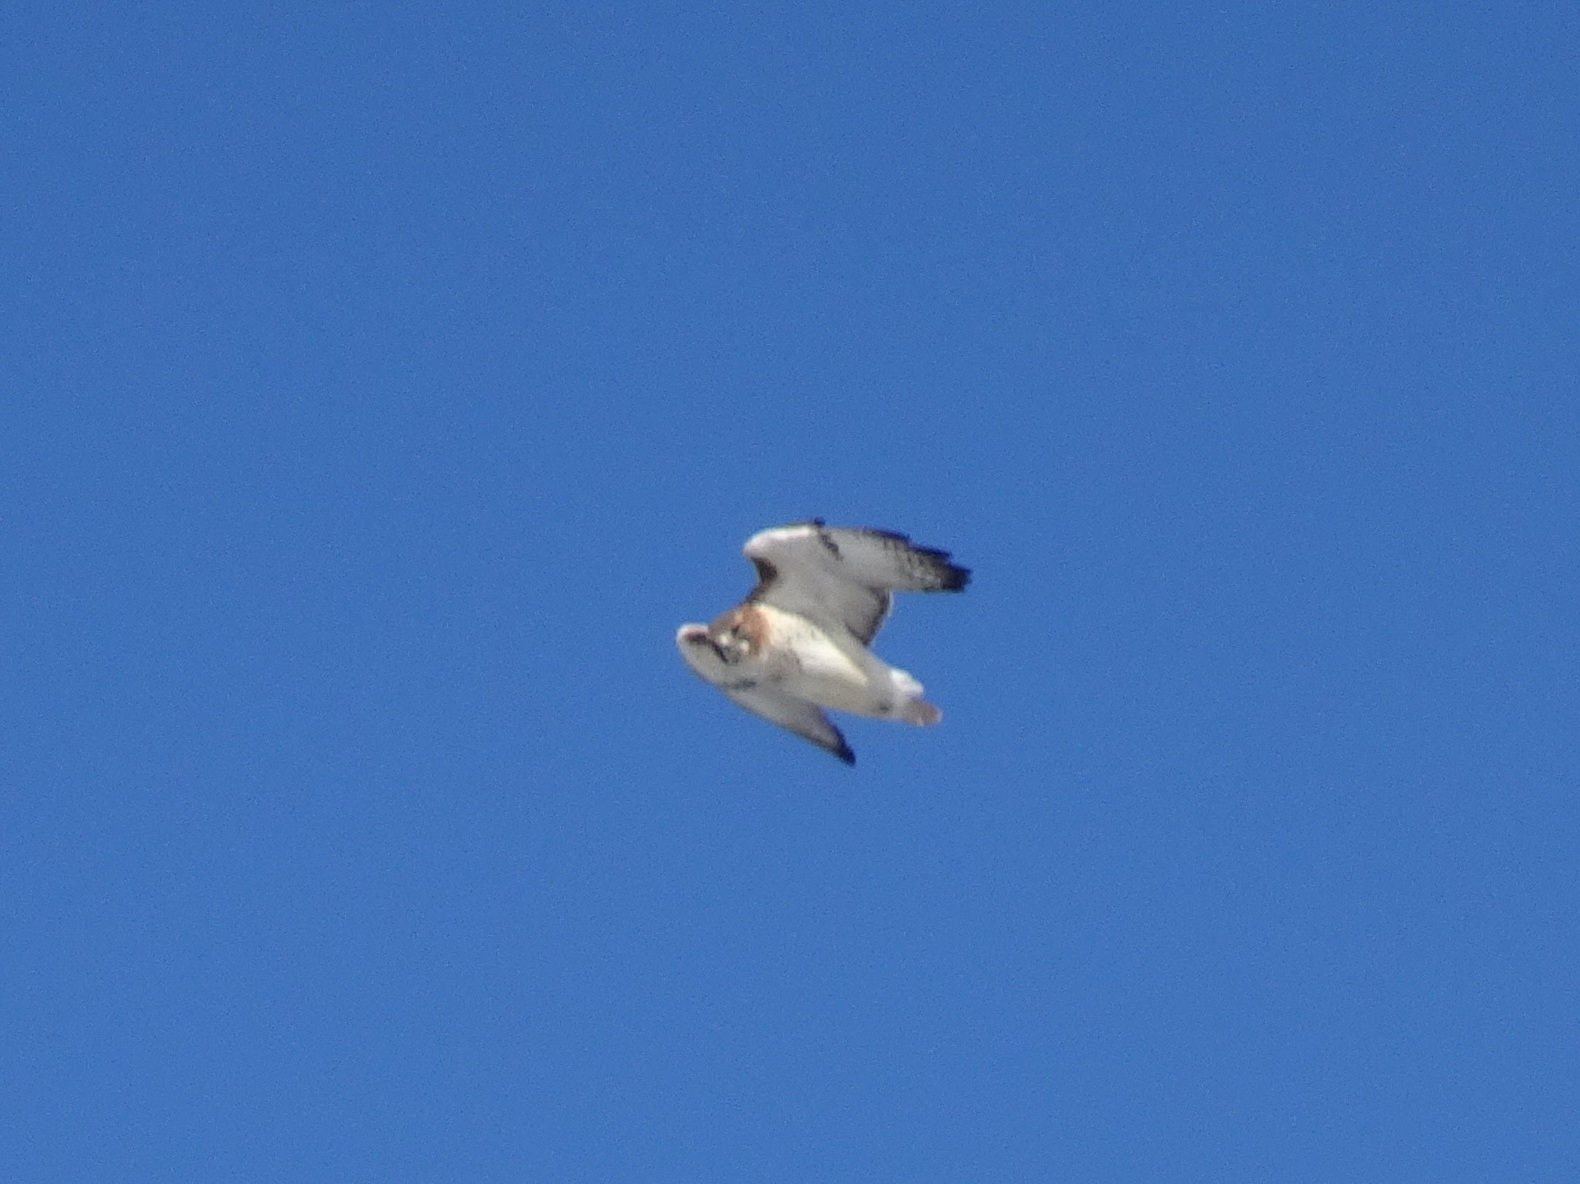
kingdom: Animalia
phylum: Chordata
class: Aves
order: Accipitriformes
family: Accipitridae
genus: Buteo
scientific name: Buteo jamaicensis
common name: Red-tailed hawk
